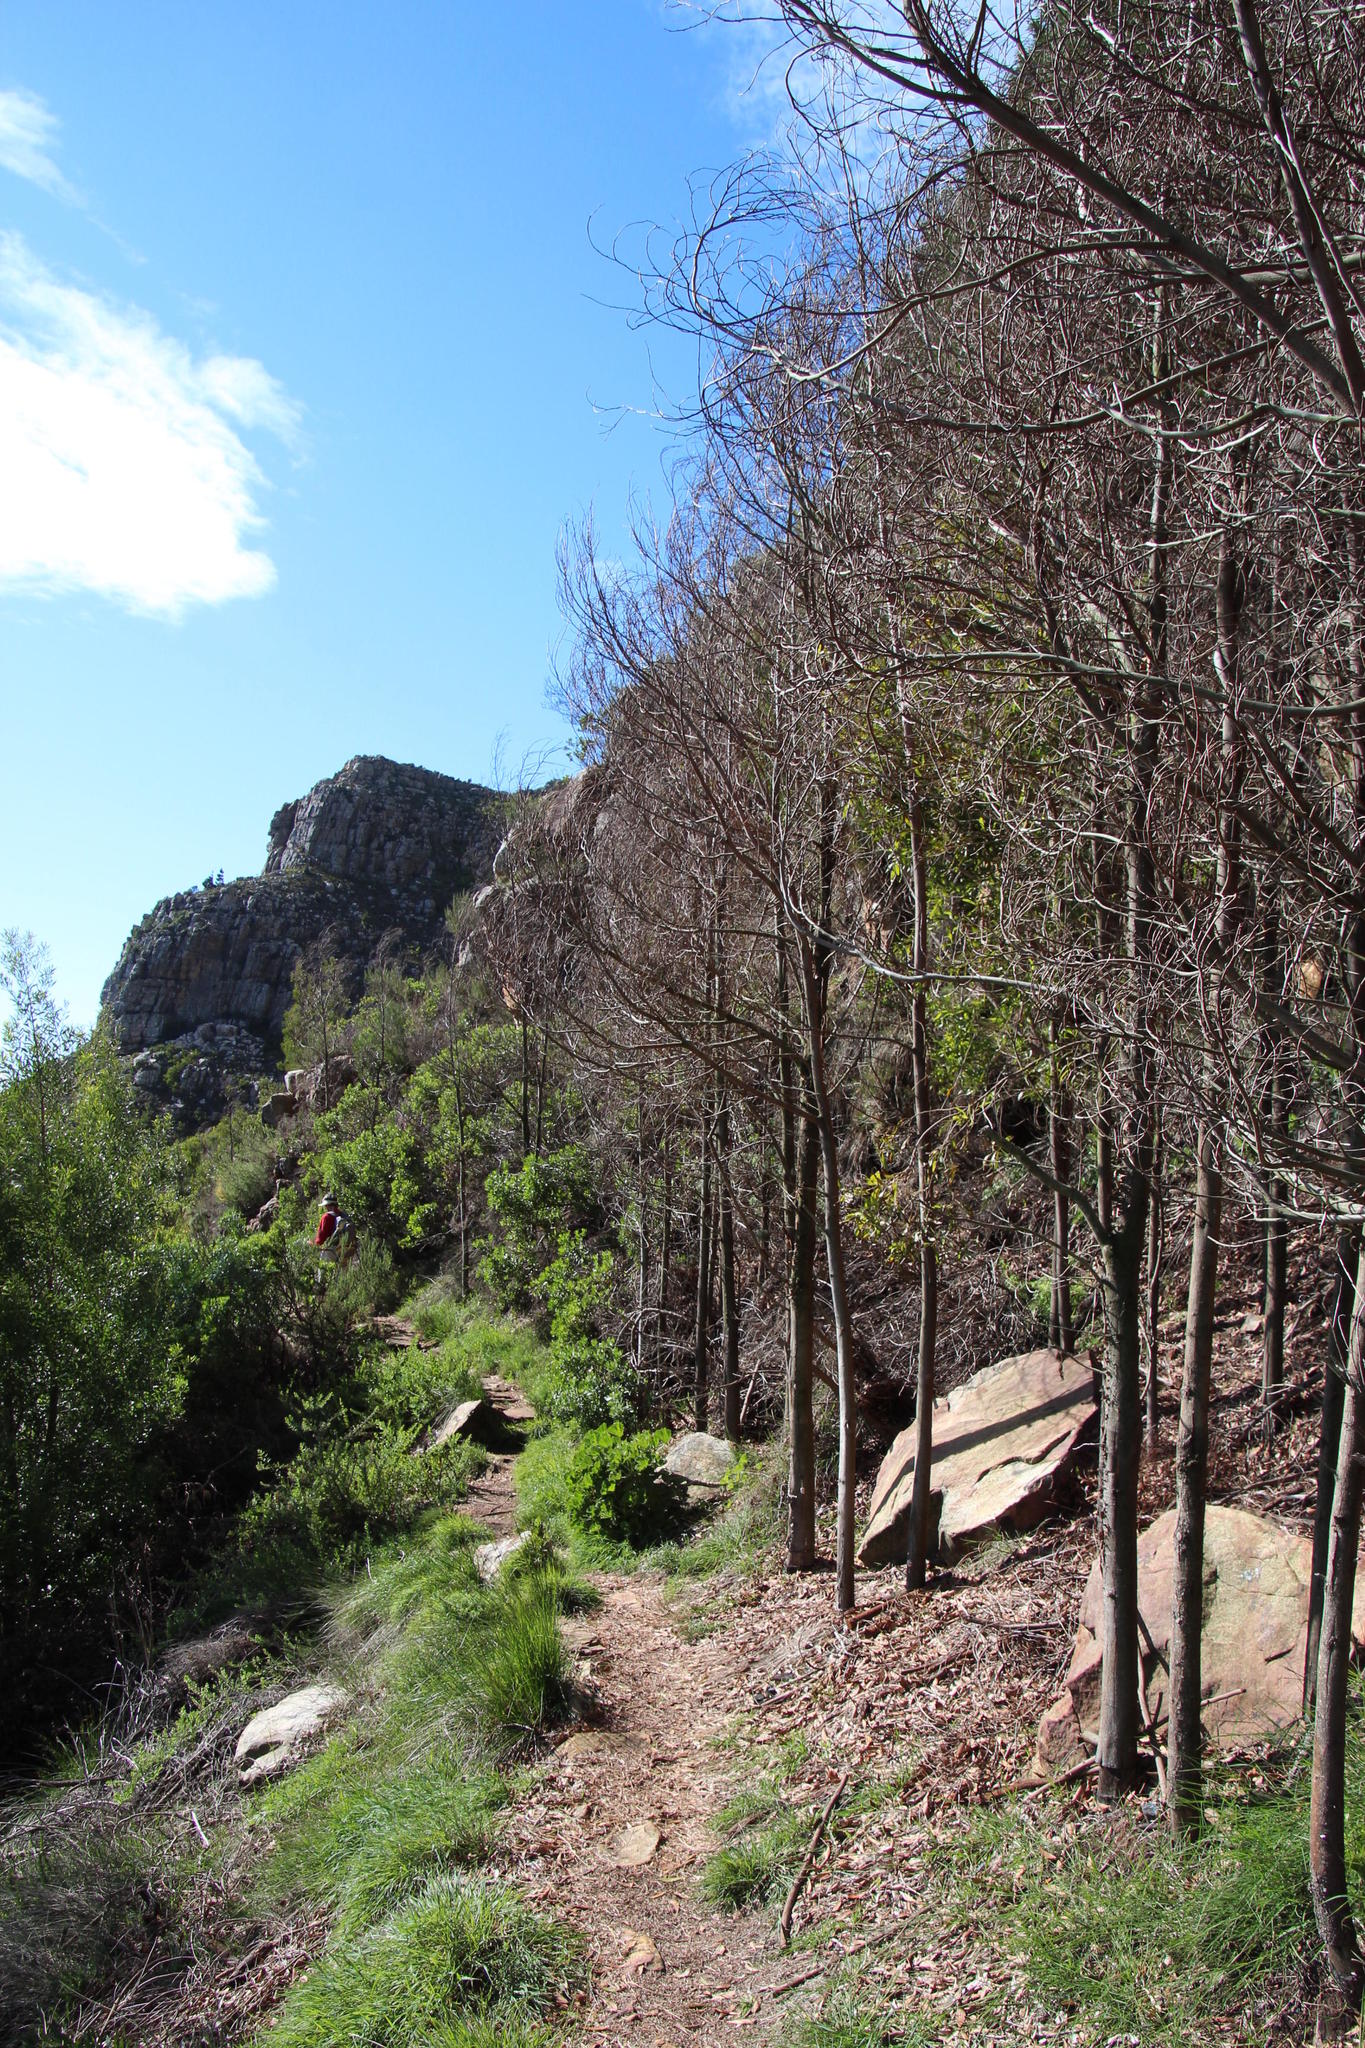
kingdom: Plantae
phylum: Tracheophyta
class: Magnoliopsida
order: Fabales
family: Fabaceae
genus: Acacia
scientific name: Acacia melanoxylon
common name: Blackwood
